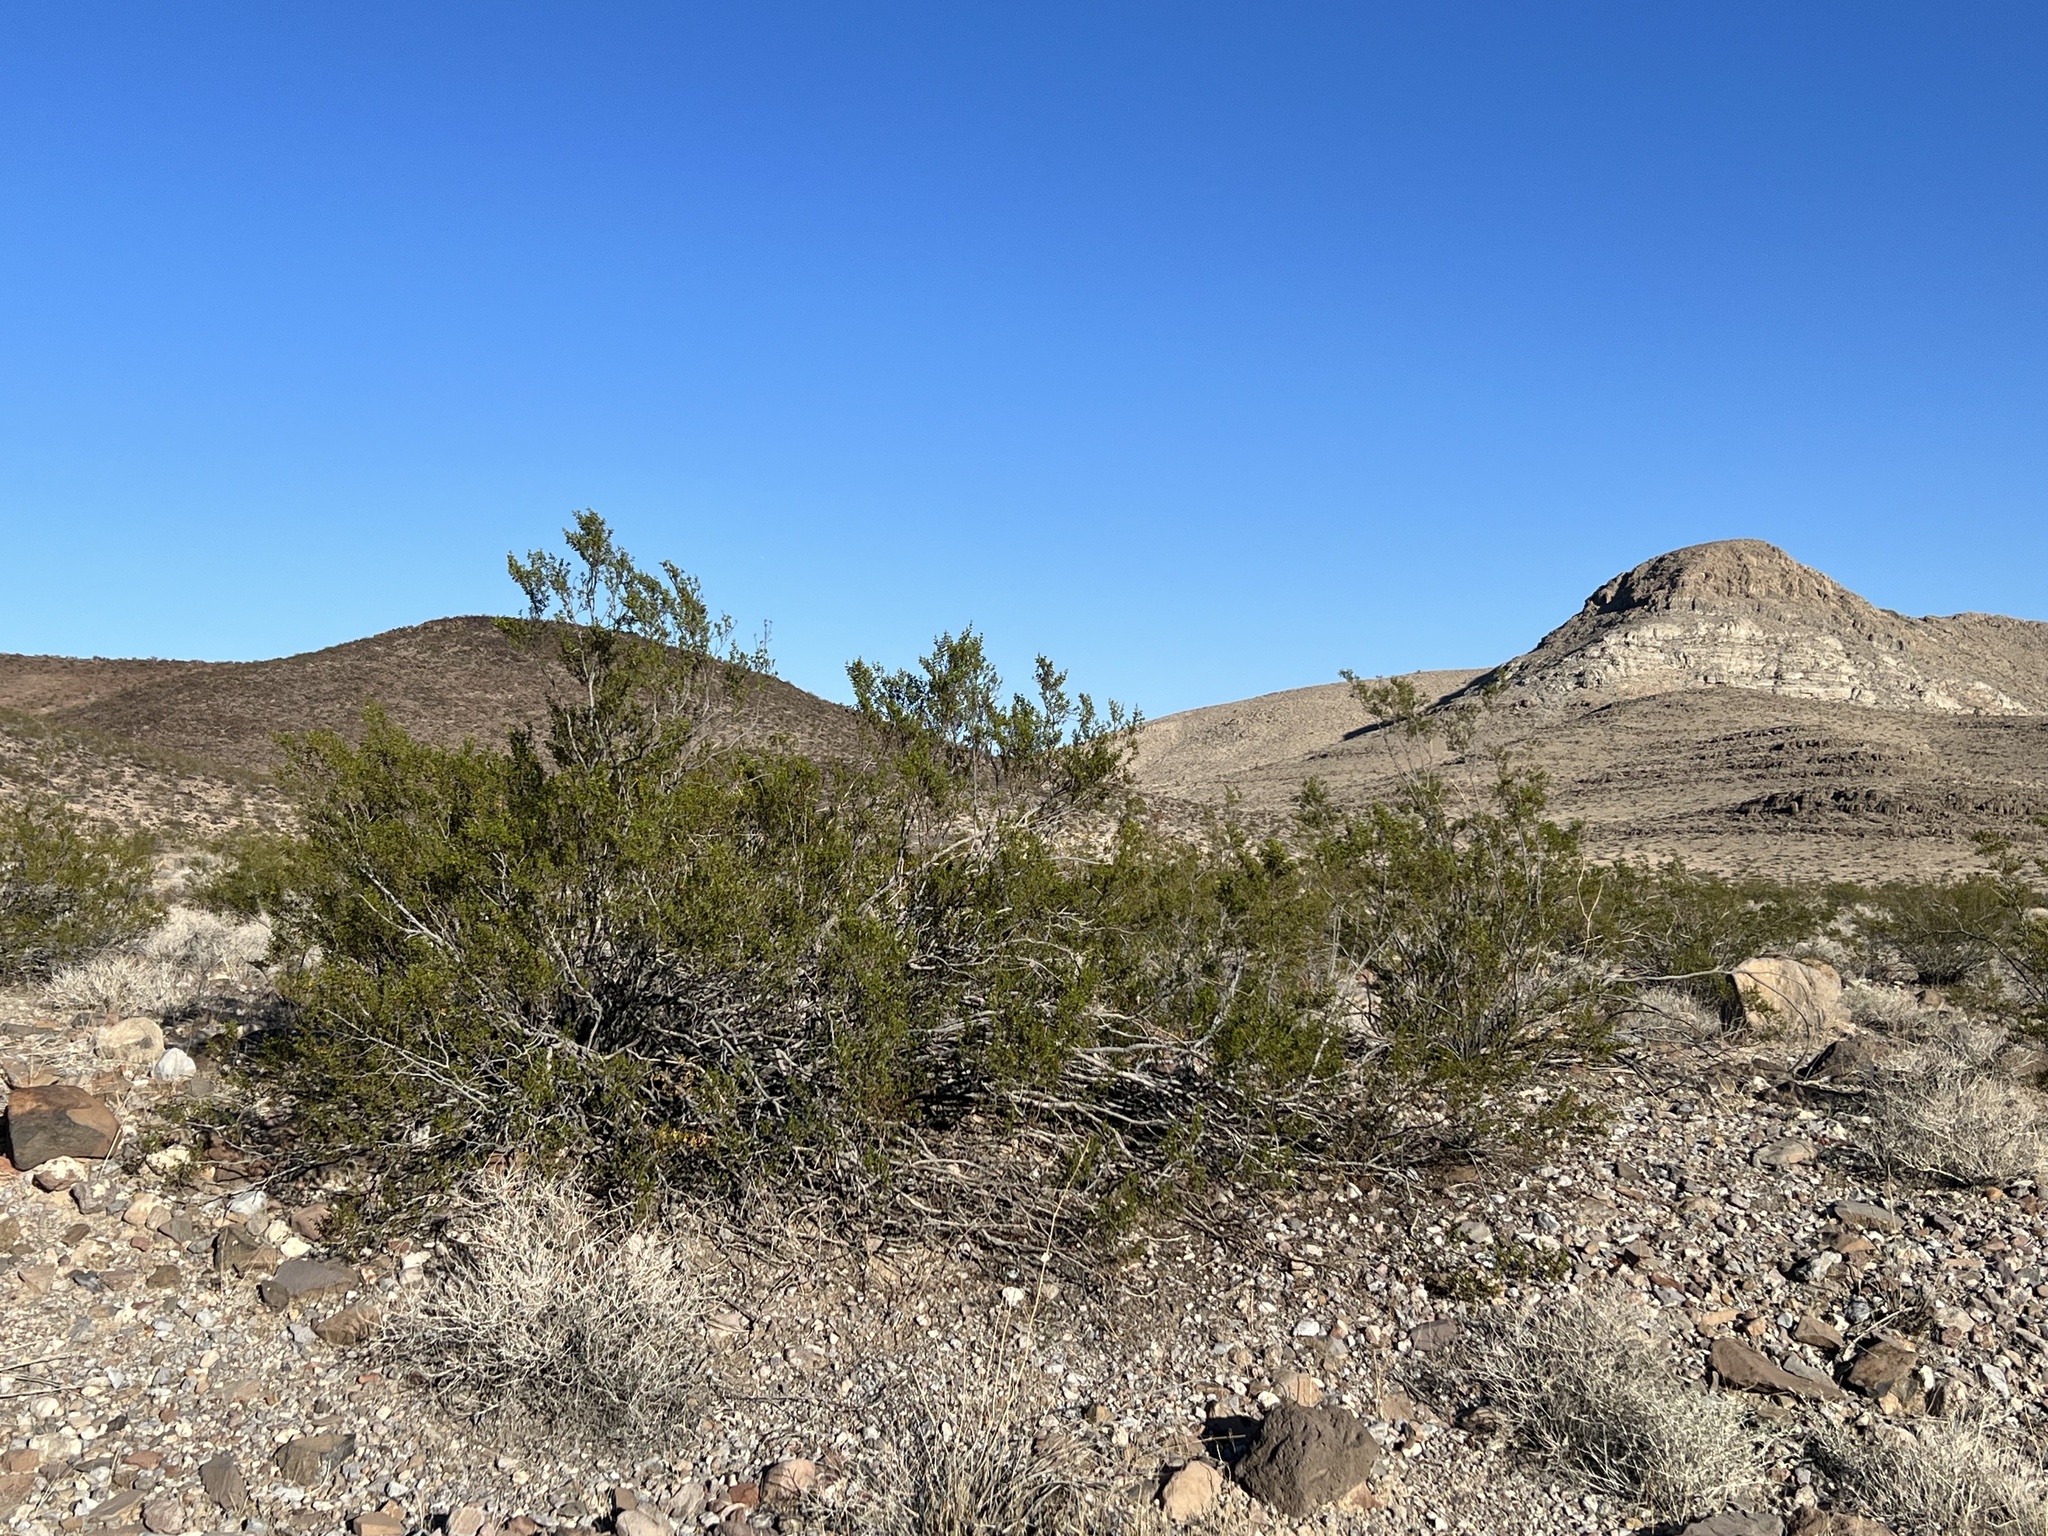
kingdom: Plantae
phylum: Tracheophyta
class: Magnoliopsida
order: Zygophyllales
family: Zygophyllaceae
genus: Larrea
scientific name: Larrea tridentata
